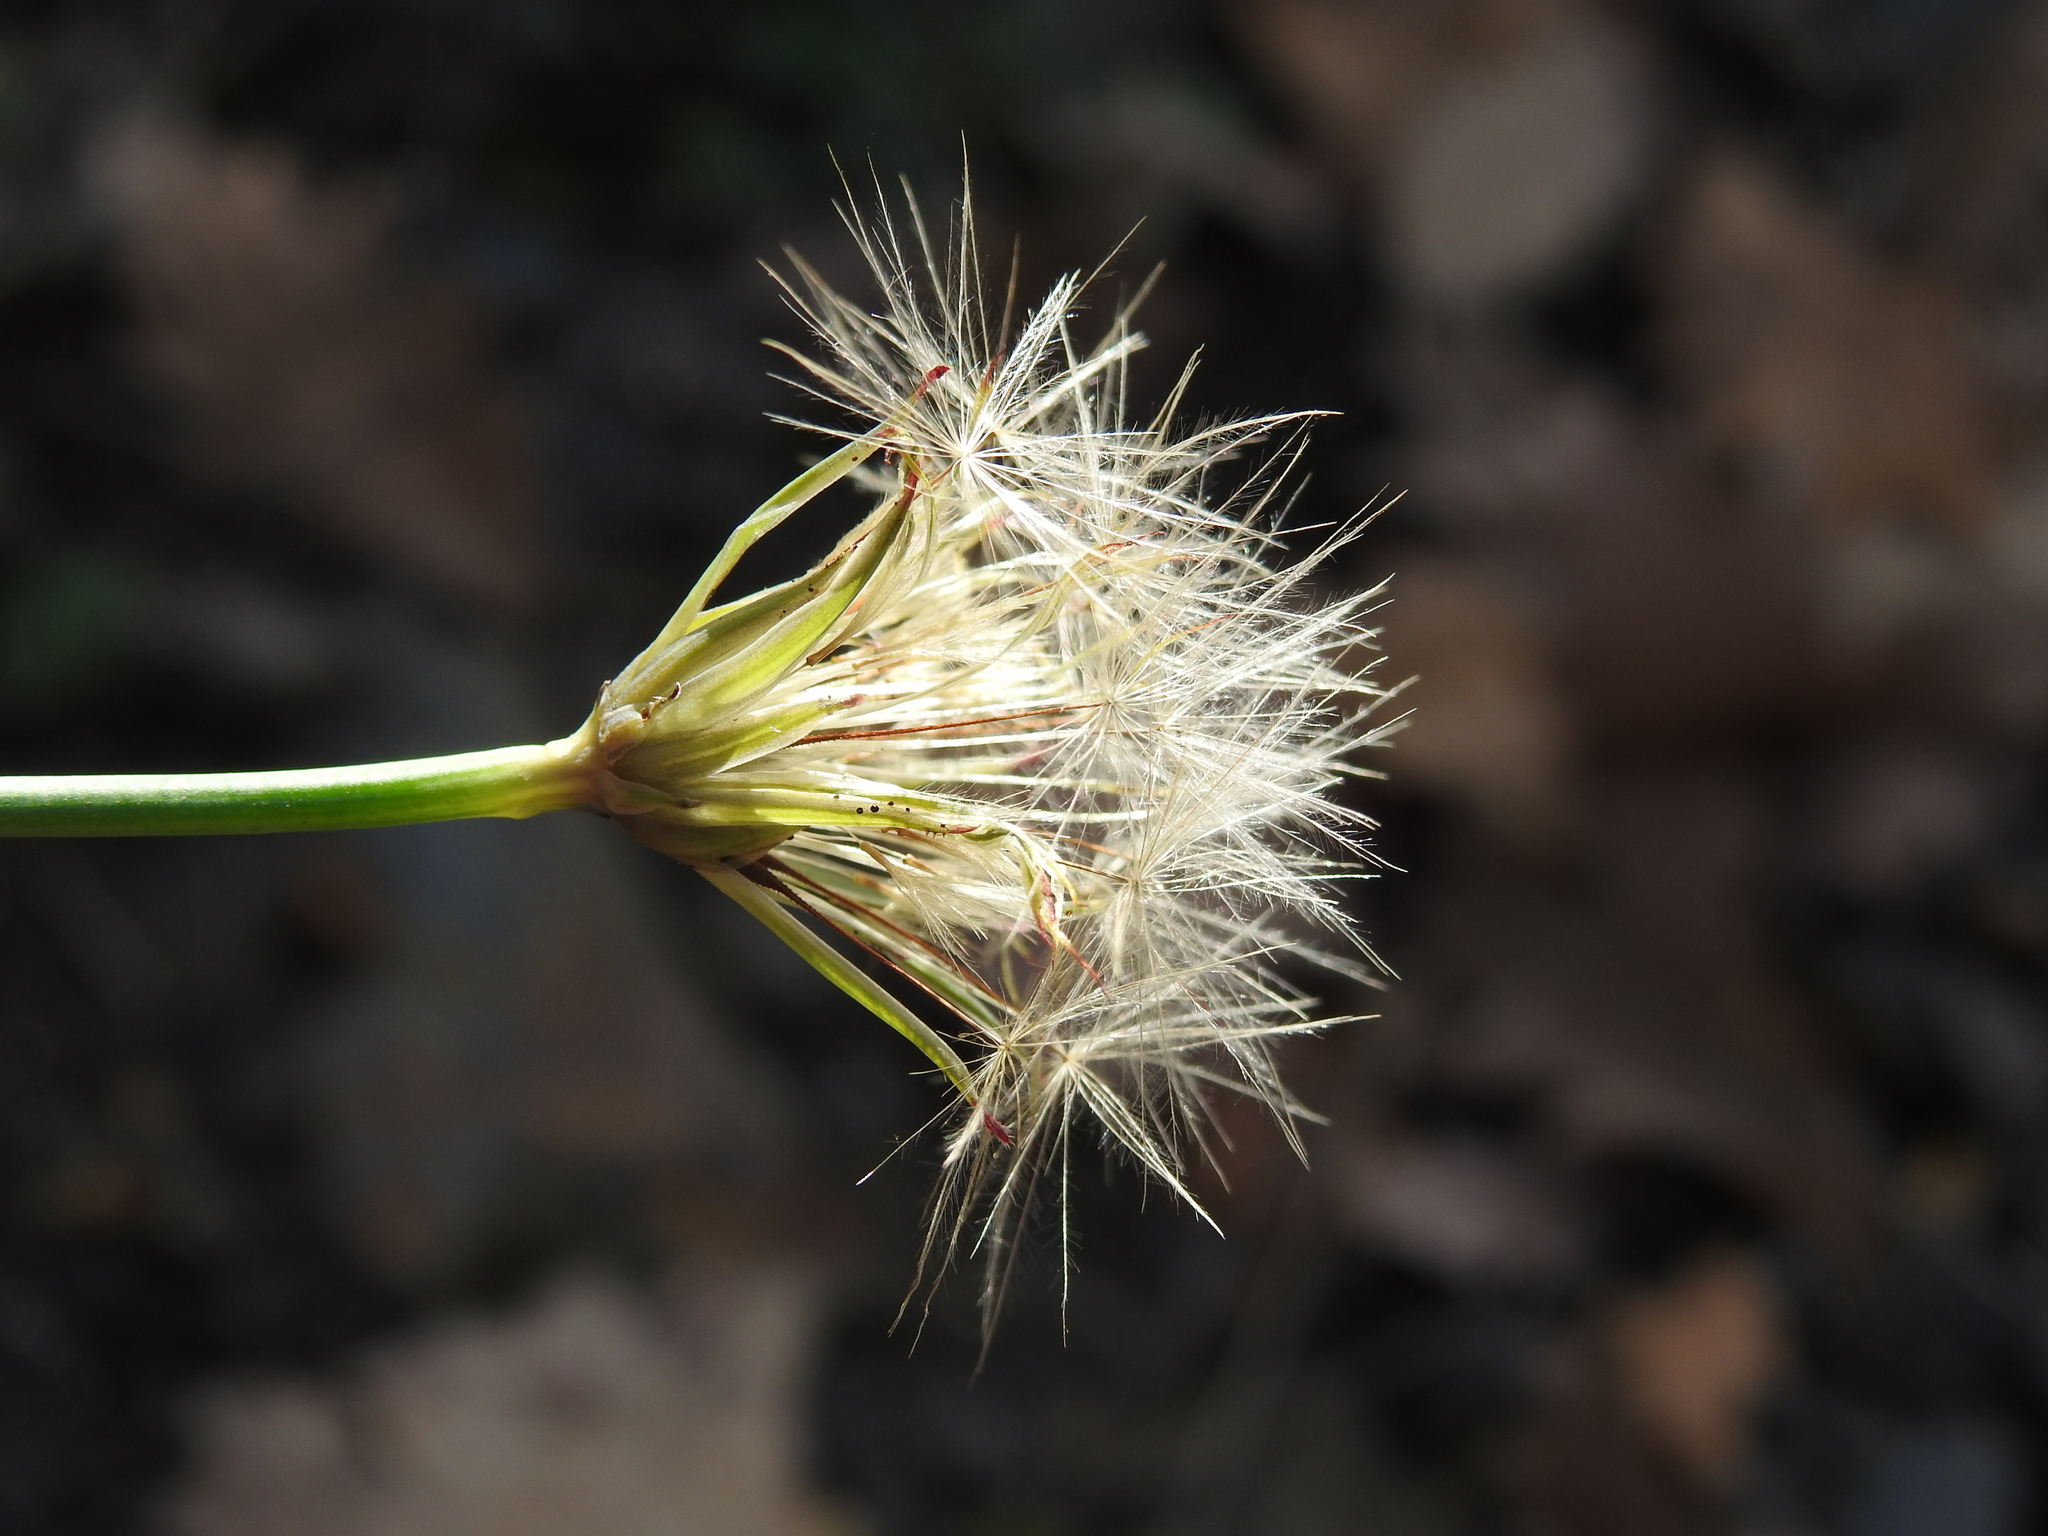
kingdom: Plantae
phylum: Tracheophyta
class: Magnoliopsida
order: Asterales
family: Asteraceae
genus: Hypochaeris
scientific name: Hypochaeris radicata
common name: Flatweed
